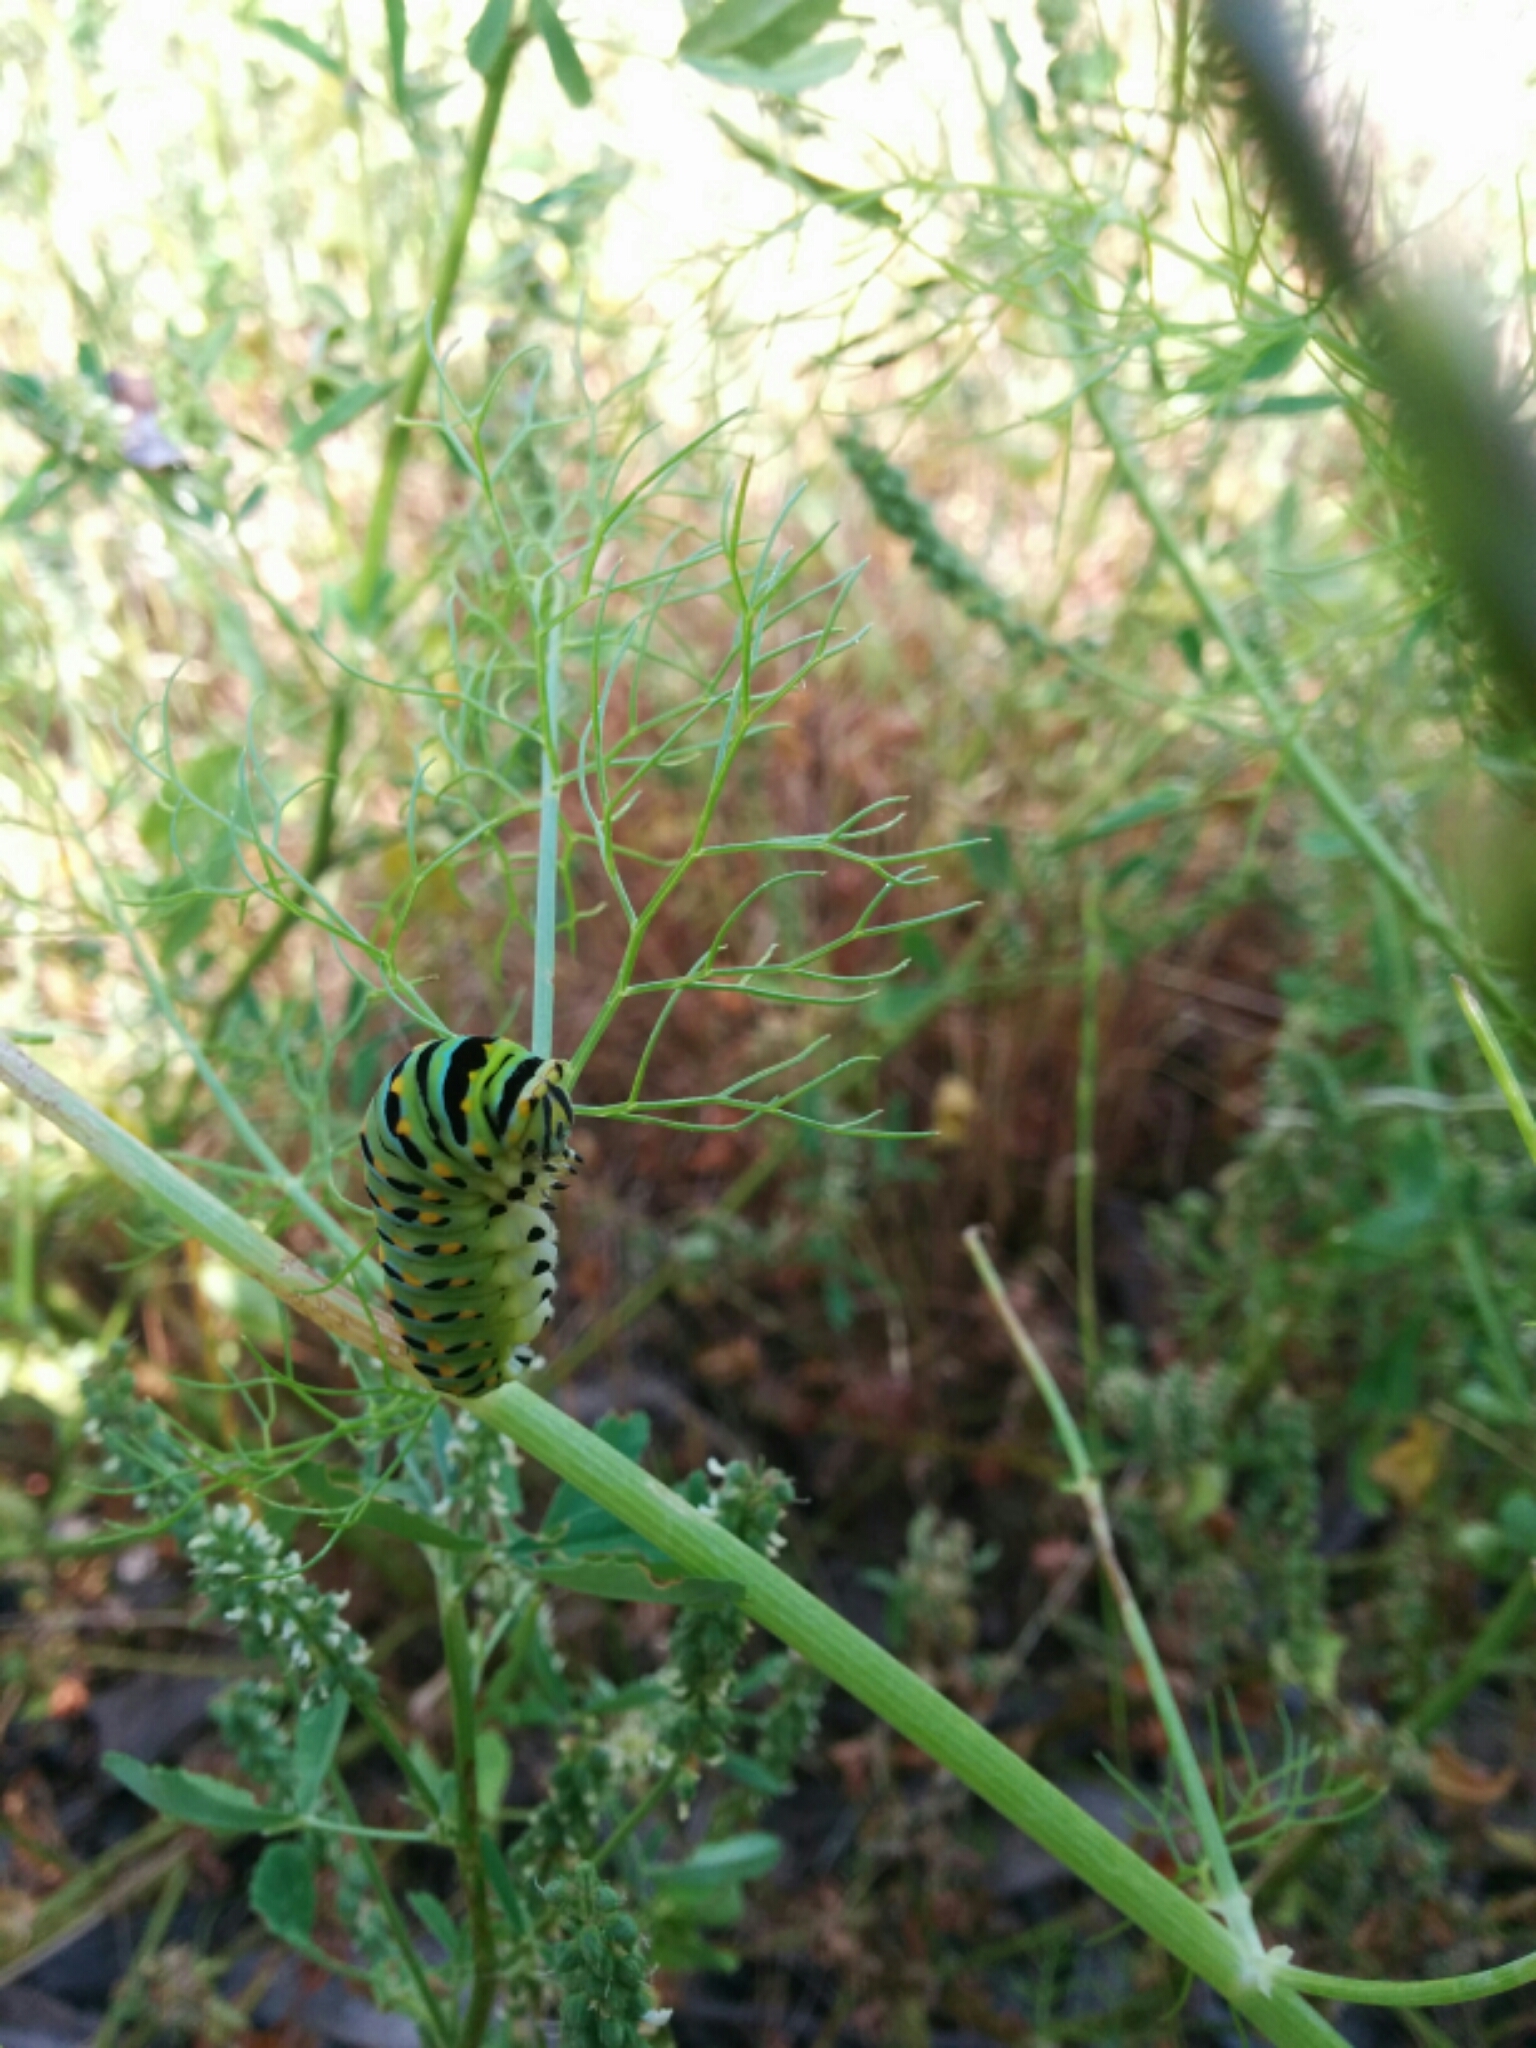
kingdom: Animalia
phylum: Arthropoda
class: Insecta
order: Lepidoptera
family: Papilionidae
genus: Papilio
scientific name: Papilio zelicaon
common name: Anise swallowtail
